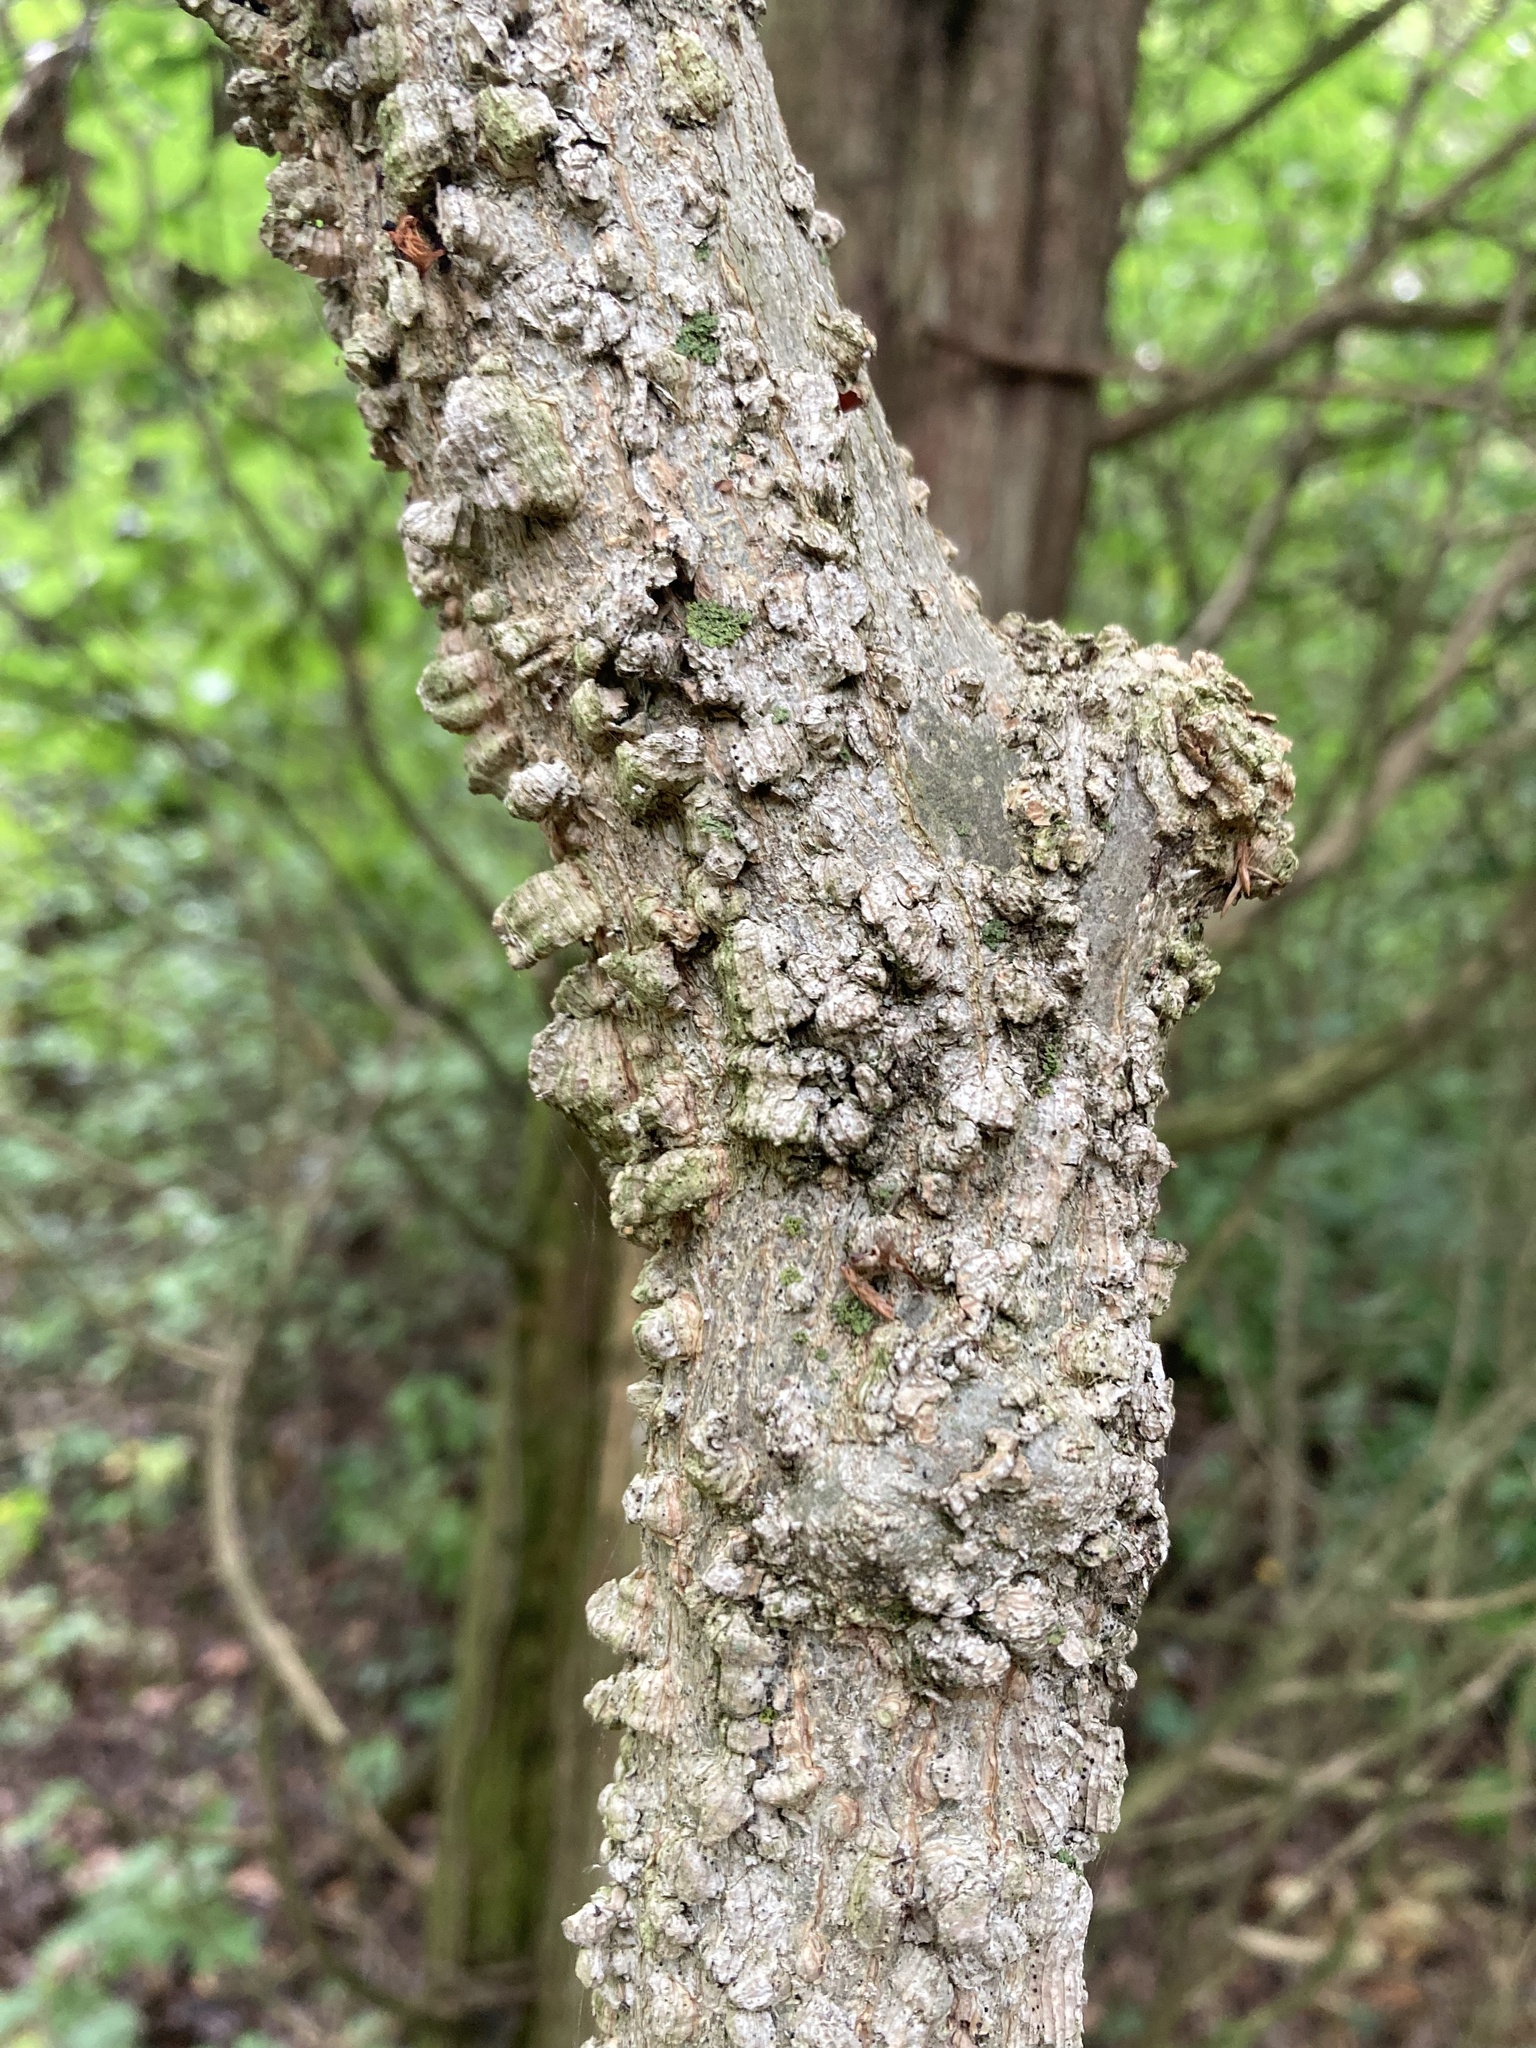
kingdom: Plantae
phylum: Tracheophyta
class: Magnoliopsida
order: Rosales
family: Cannabaceae
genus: Celtis
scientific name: Celtis occidentalis
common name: Common hackberry
